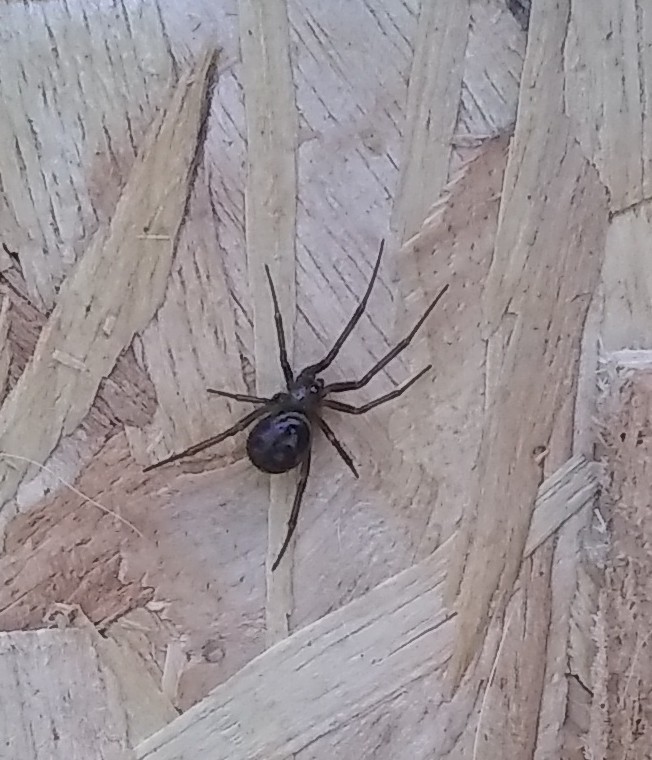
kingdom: Animalia
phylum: Arthropoda
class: Arachnida
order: Araneae
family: Theridiidae
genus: Steatoda
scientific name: Steatoda grossa
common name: False black widow
